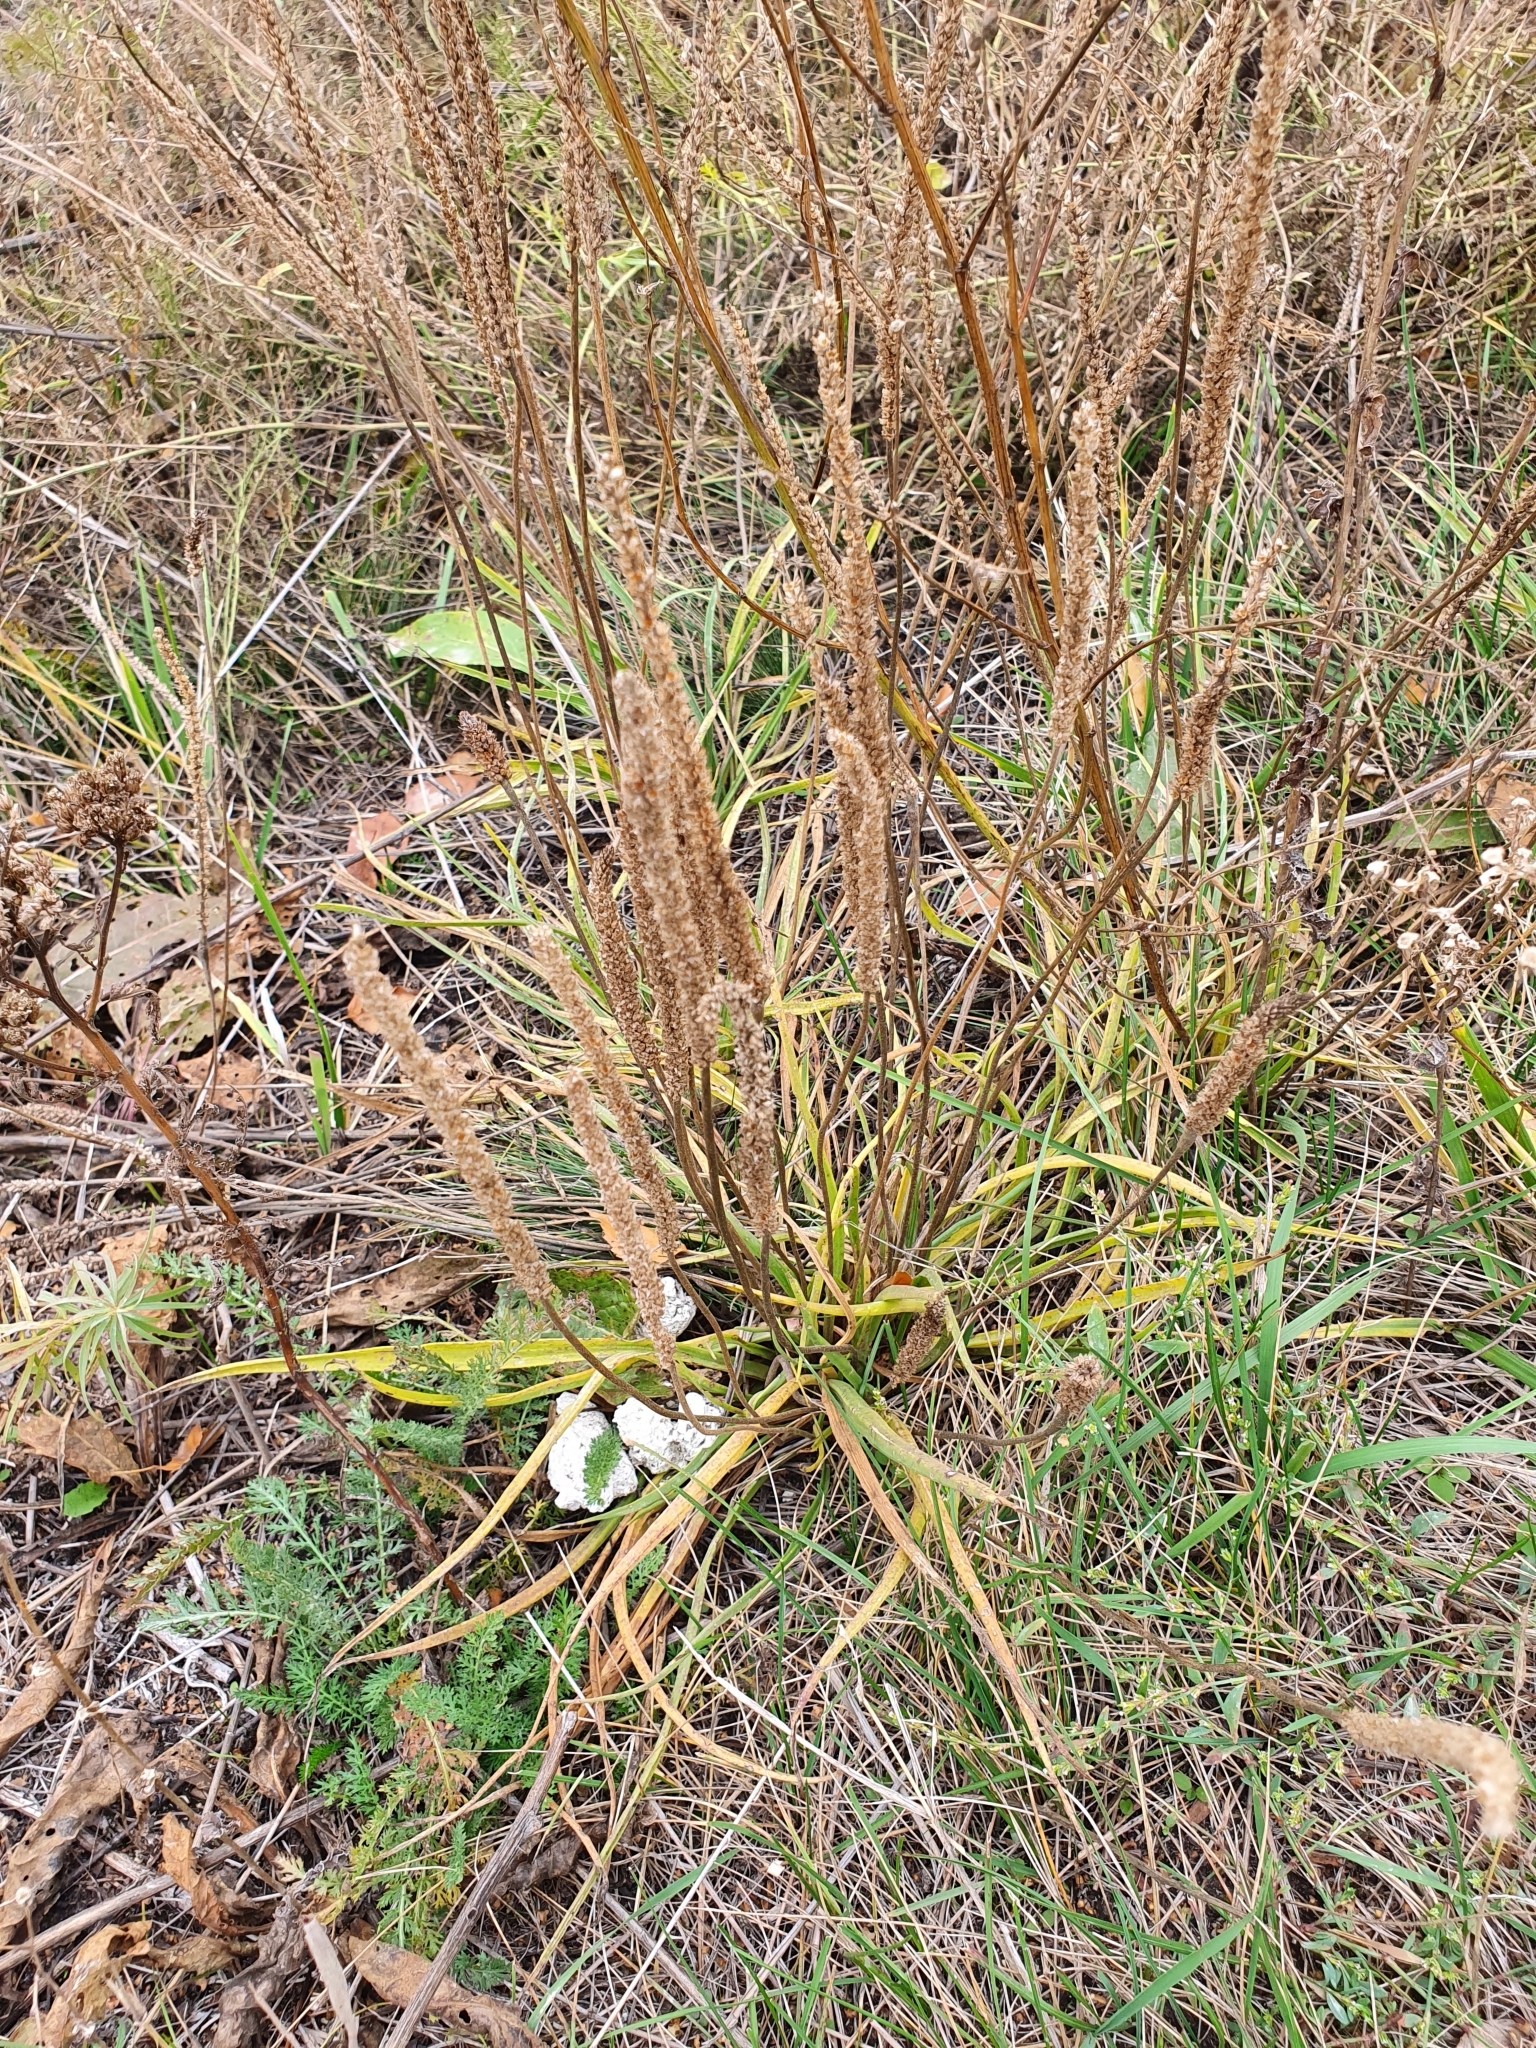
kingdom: Plantae
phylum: Tracheophyta
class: Magnoliopsida
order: Lamiales
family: Plantaginaceae
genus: Plantago
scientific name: Plantago salsa
